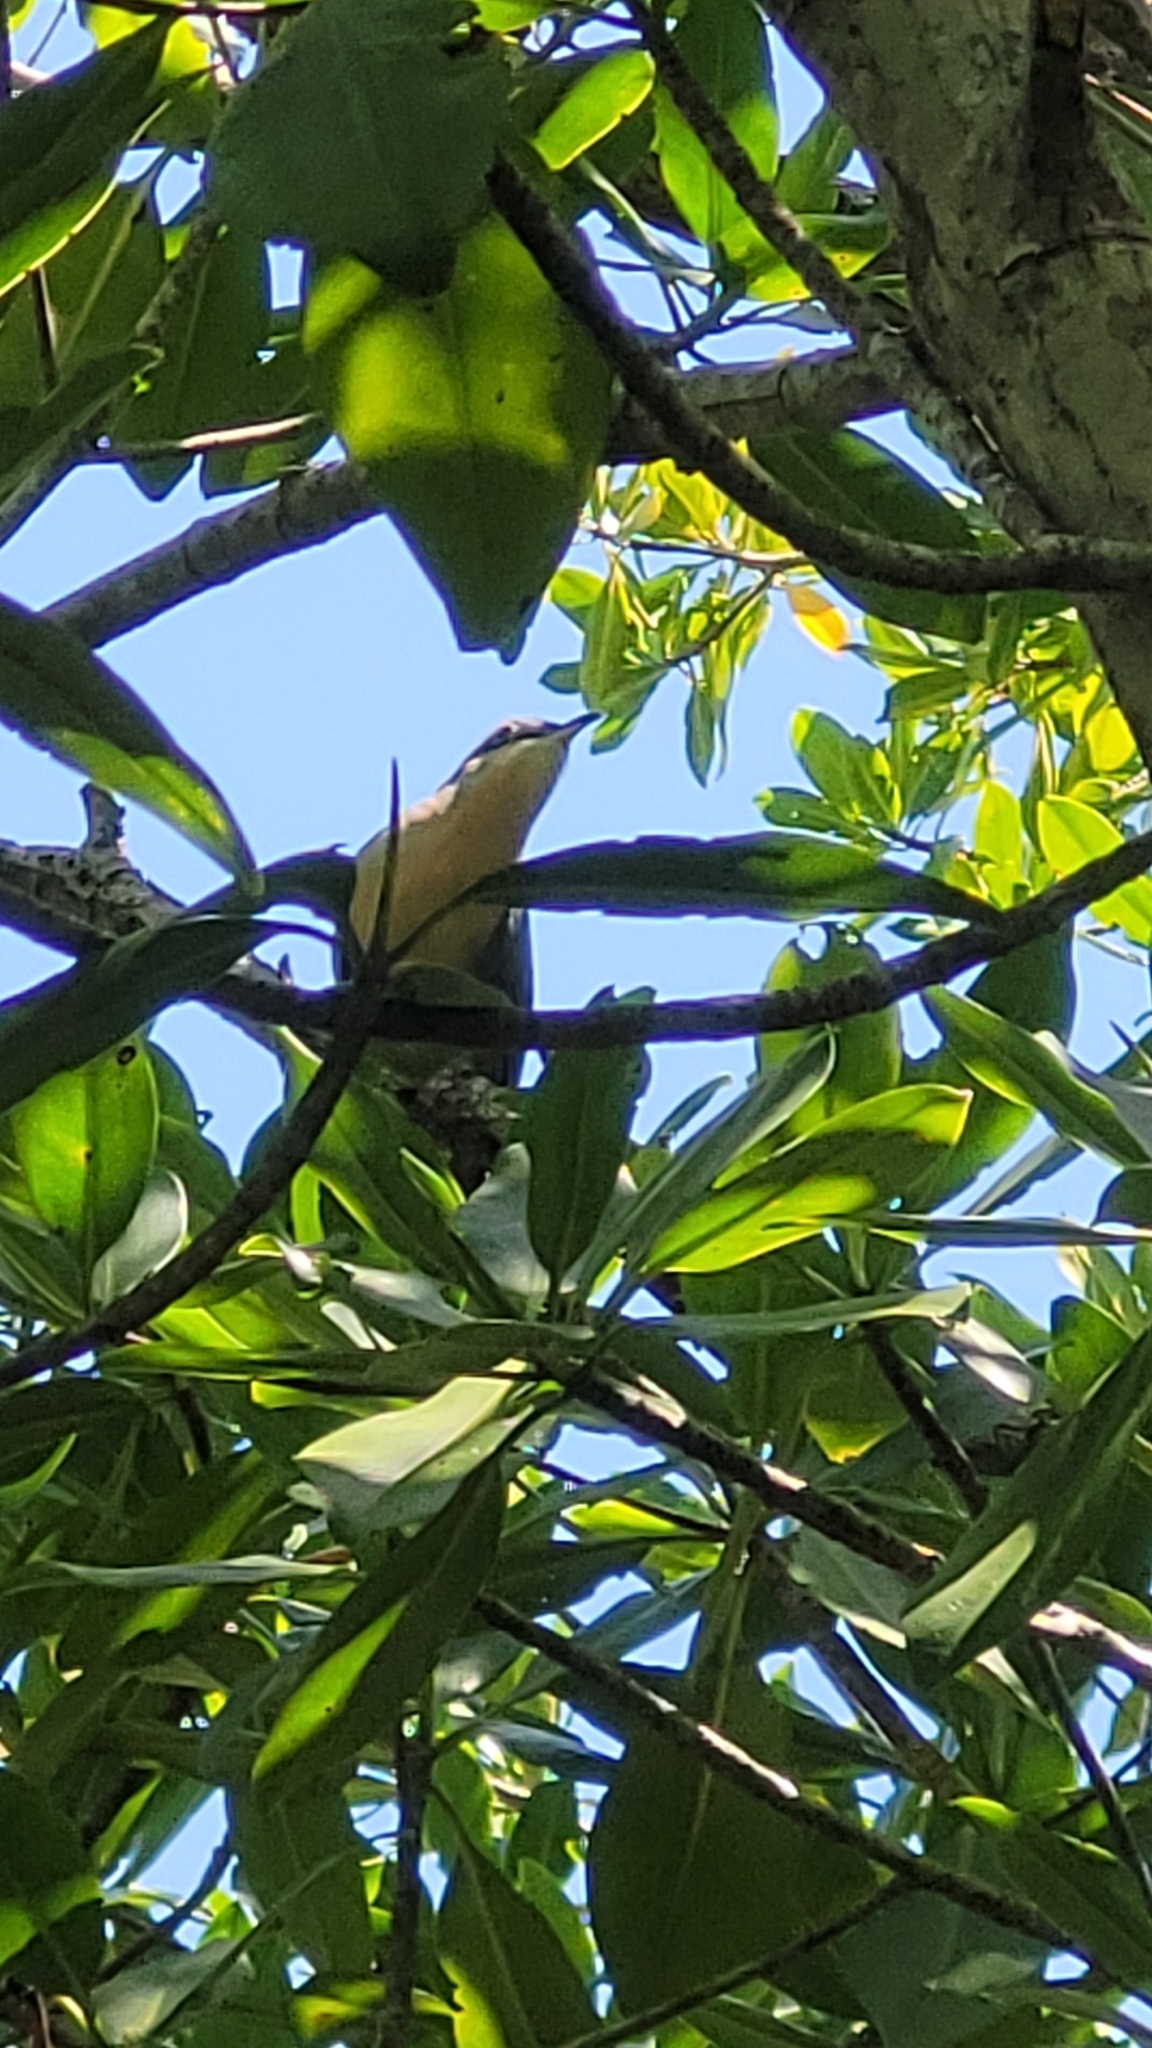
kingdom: Animalia
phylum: Chordata
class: Aves
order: Cuculiformes
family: Cuculidae
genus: Coccyzus
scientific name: Coccyzus minor
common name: Mangrove cuckoo
